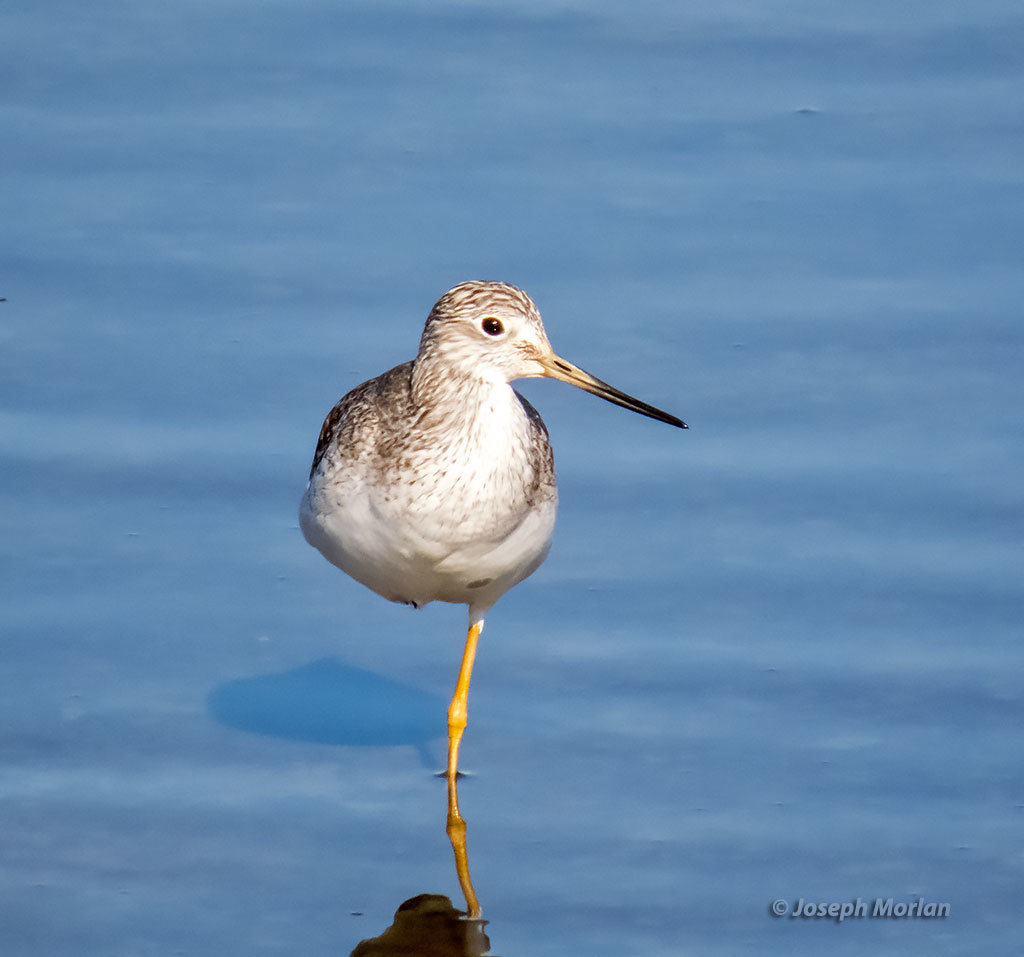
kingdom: Animalia
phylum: Chordata
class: Aves
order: Charadriiformes
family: Scolopacidae
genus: Tringa
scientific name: Tringa melanoleuca
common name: Greater yellowlegs
